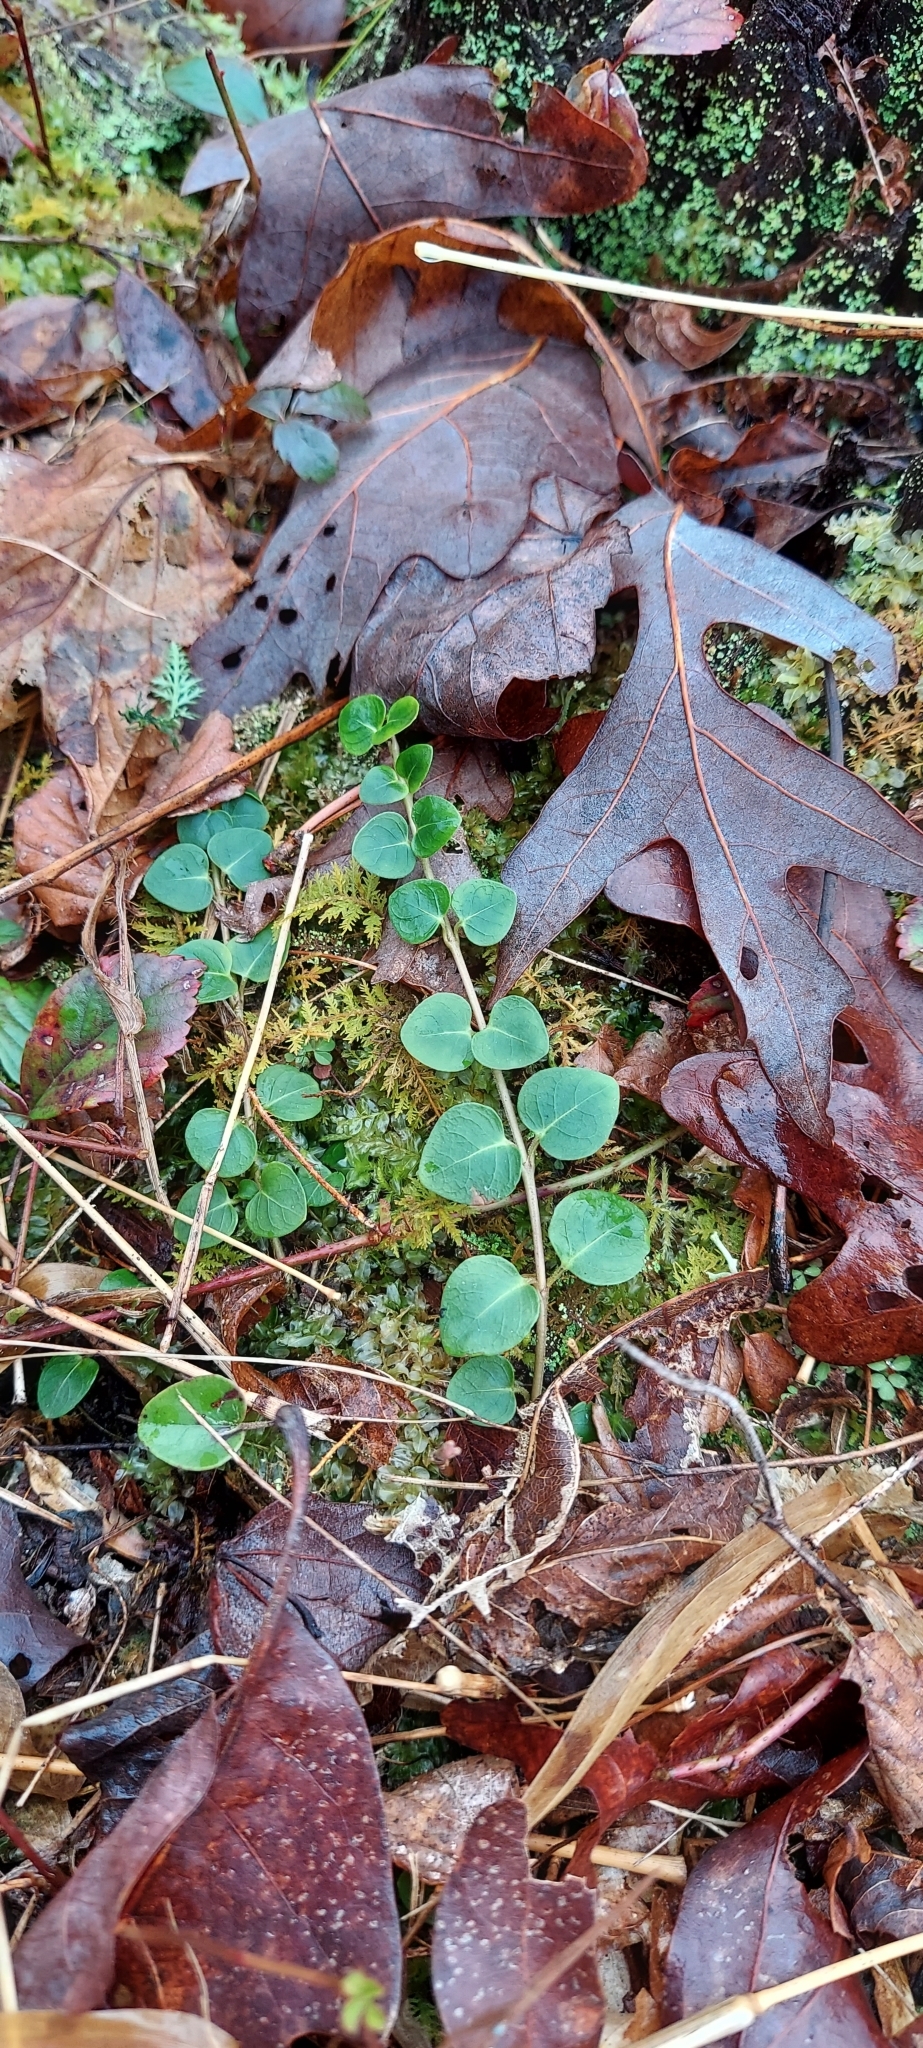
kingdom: Plantae
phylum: Tracheophyta
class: Magnoliopsida
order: Gentianales
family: Rubiaceae
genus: Mitchella
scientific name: Mitchella repens
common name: Partridge-berry
